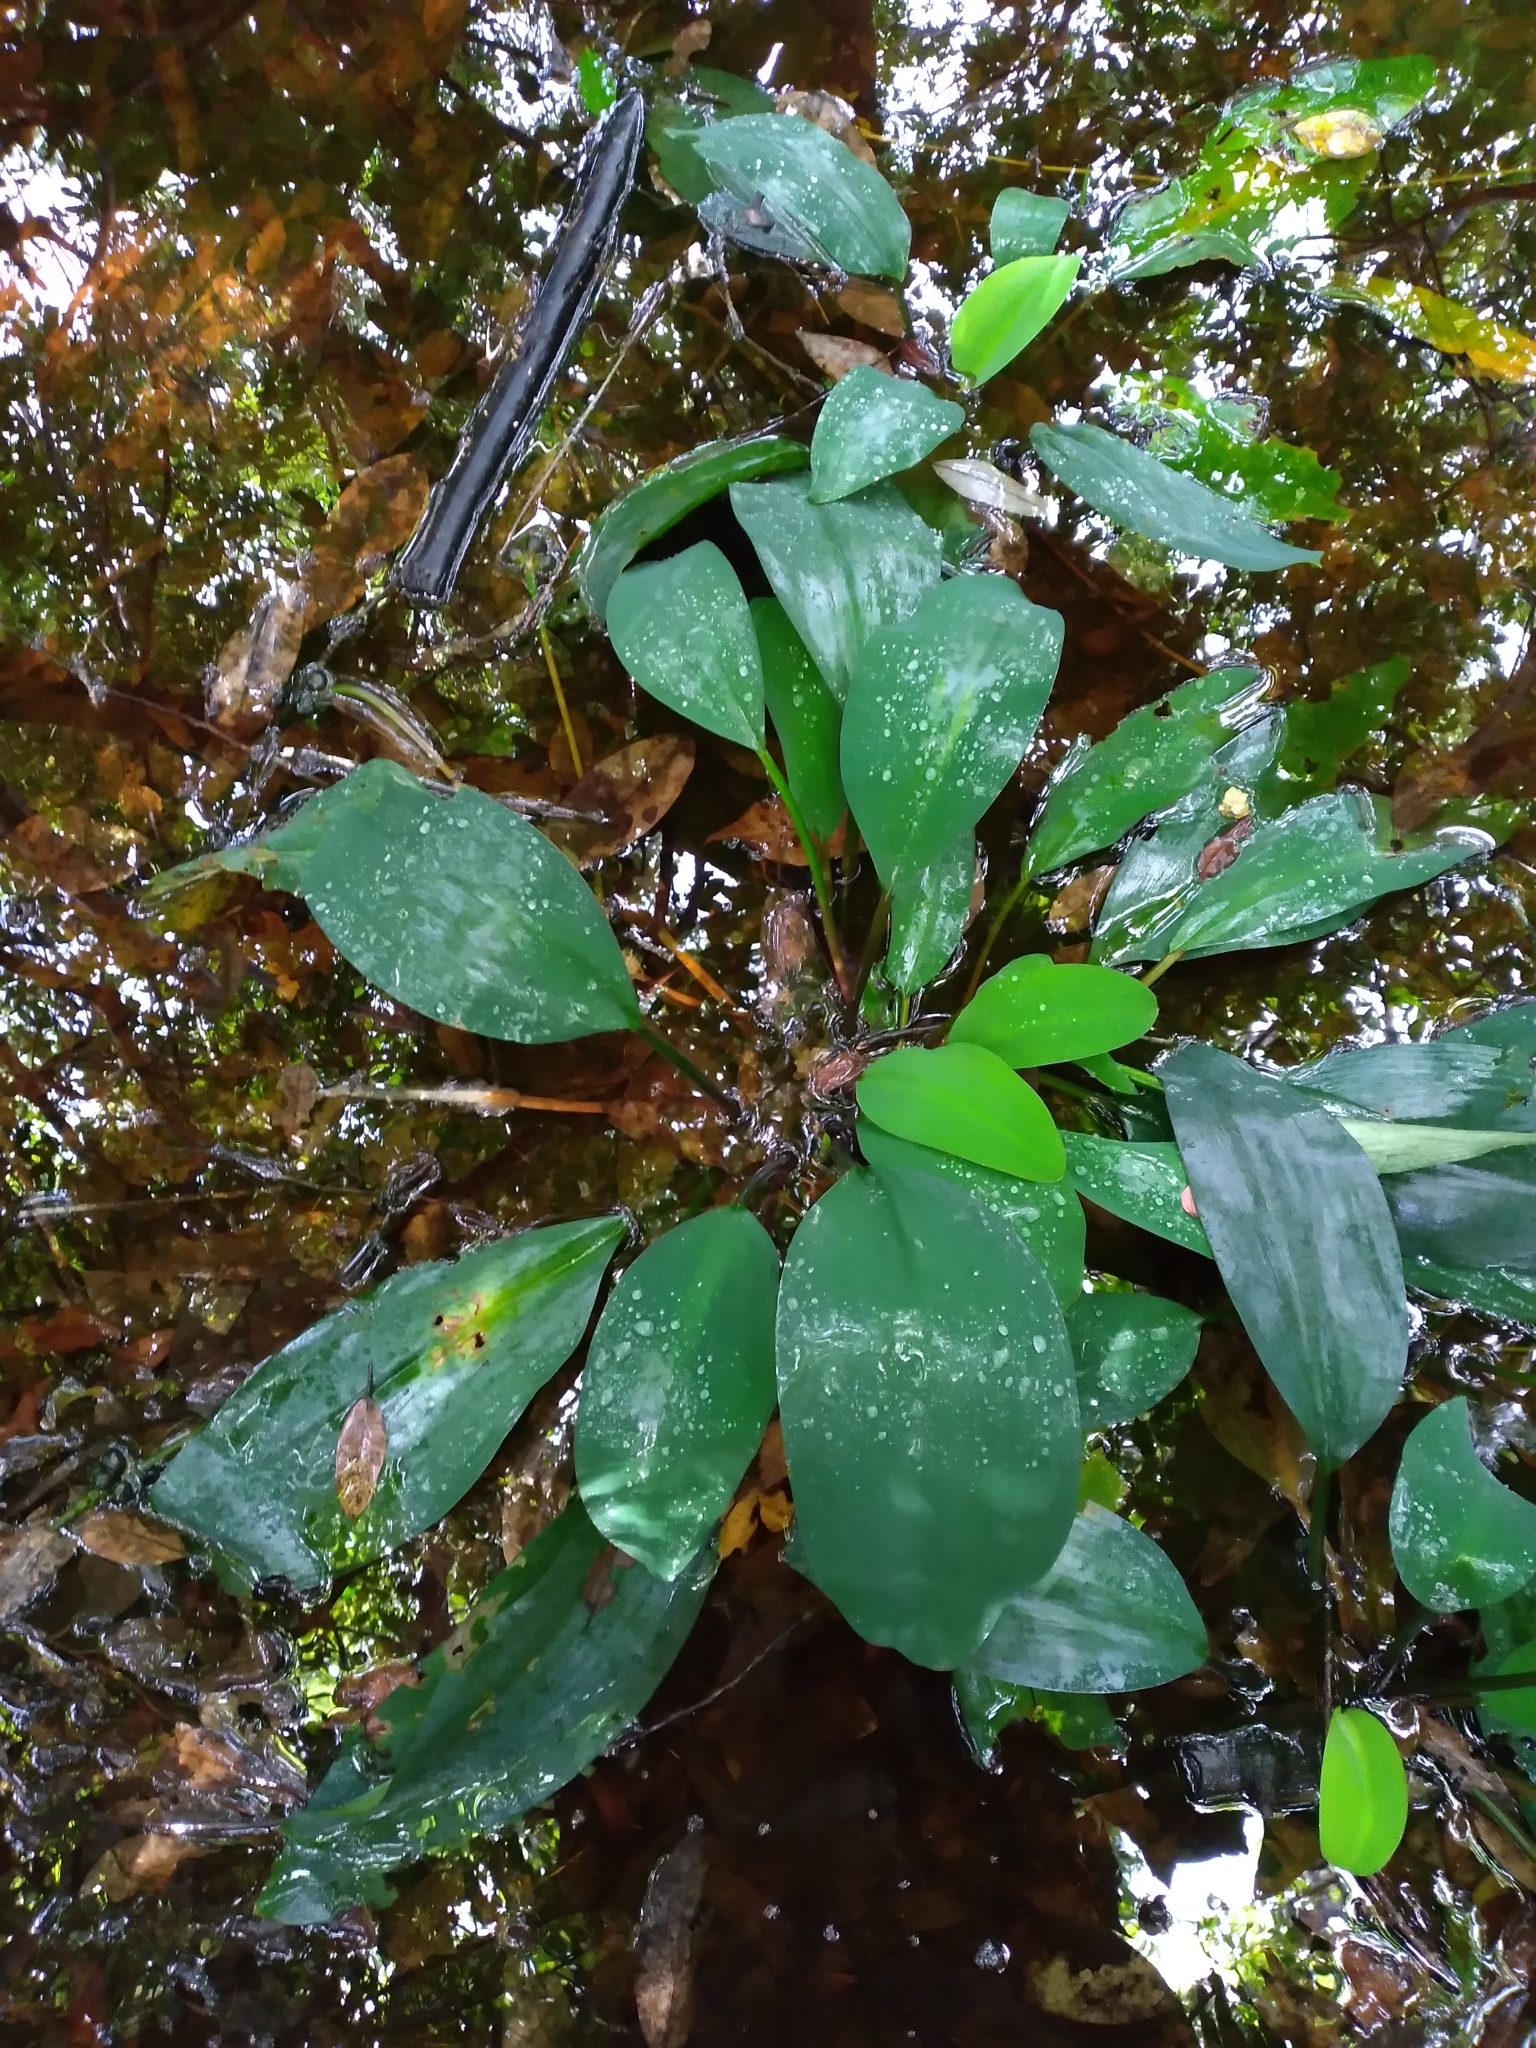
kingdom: Plantae
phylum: Tracheophyta
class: Liliopsida
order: Alismatales
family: Araceae
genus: Orontium
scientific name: Orontium aquaticum
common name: Golden-club
